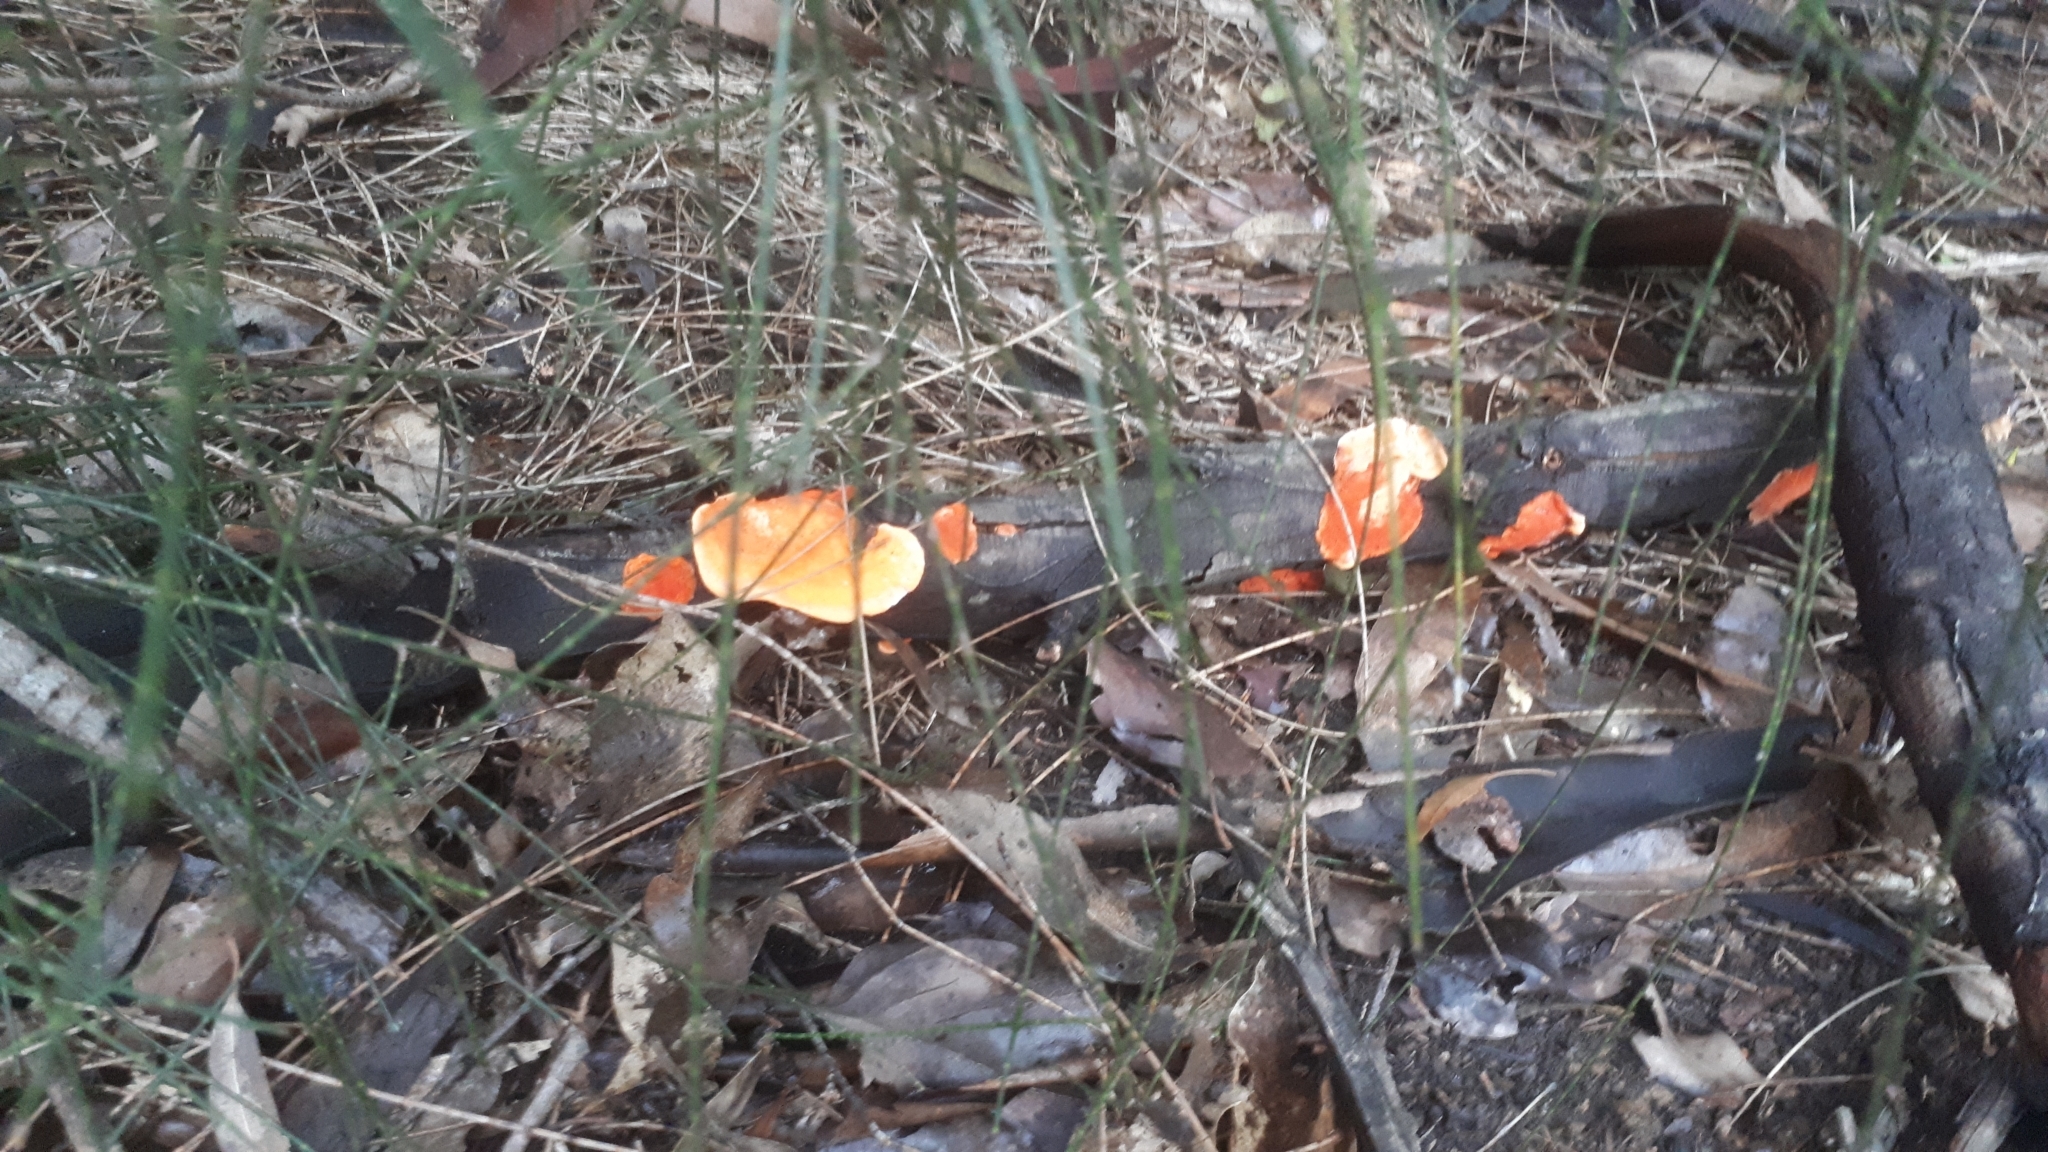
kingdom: Fungi
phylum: Basidiomycota
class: Agaricomycetes
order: Polyporales
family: Polyporaceae
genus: Trametes
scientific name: Trametes coccinea
